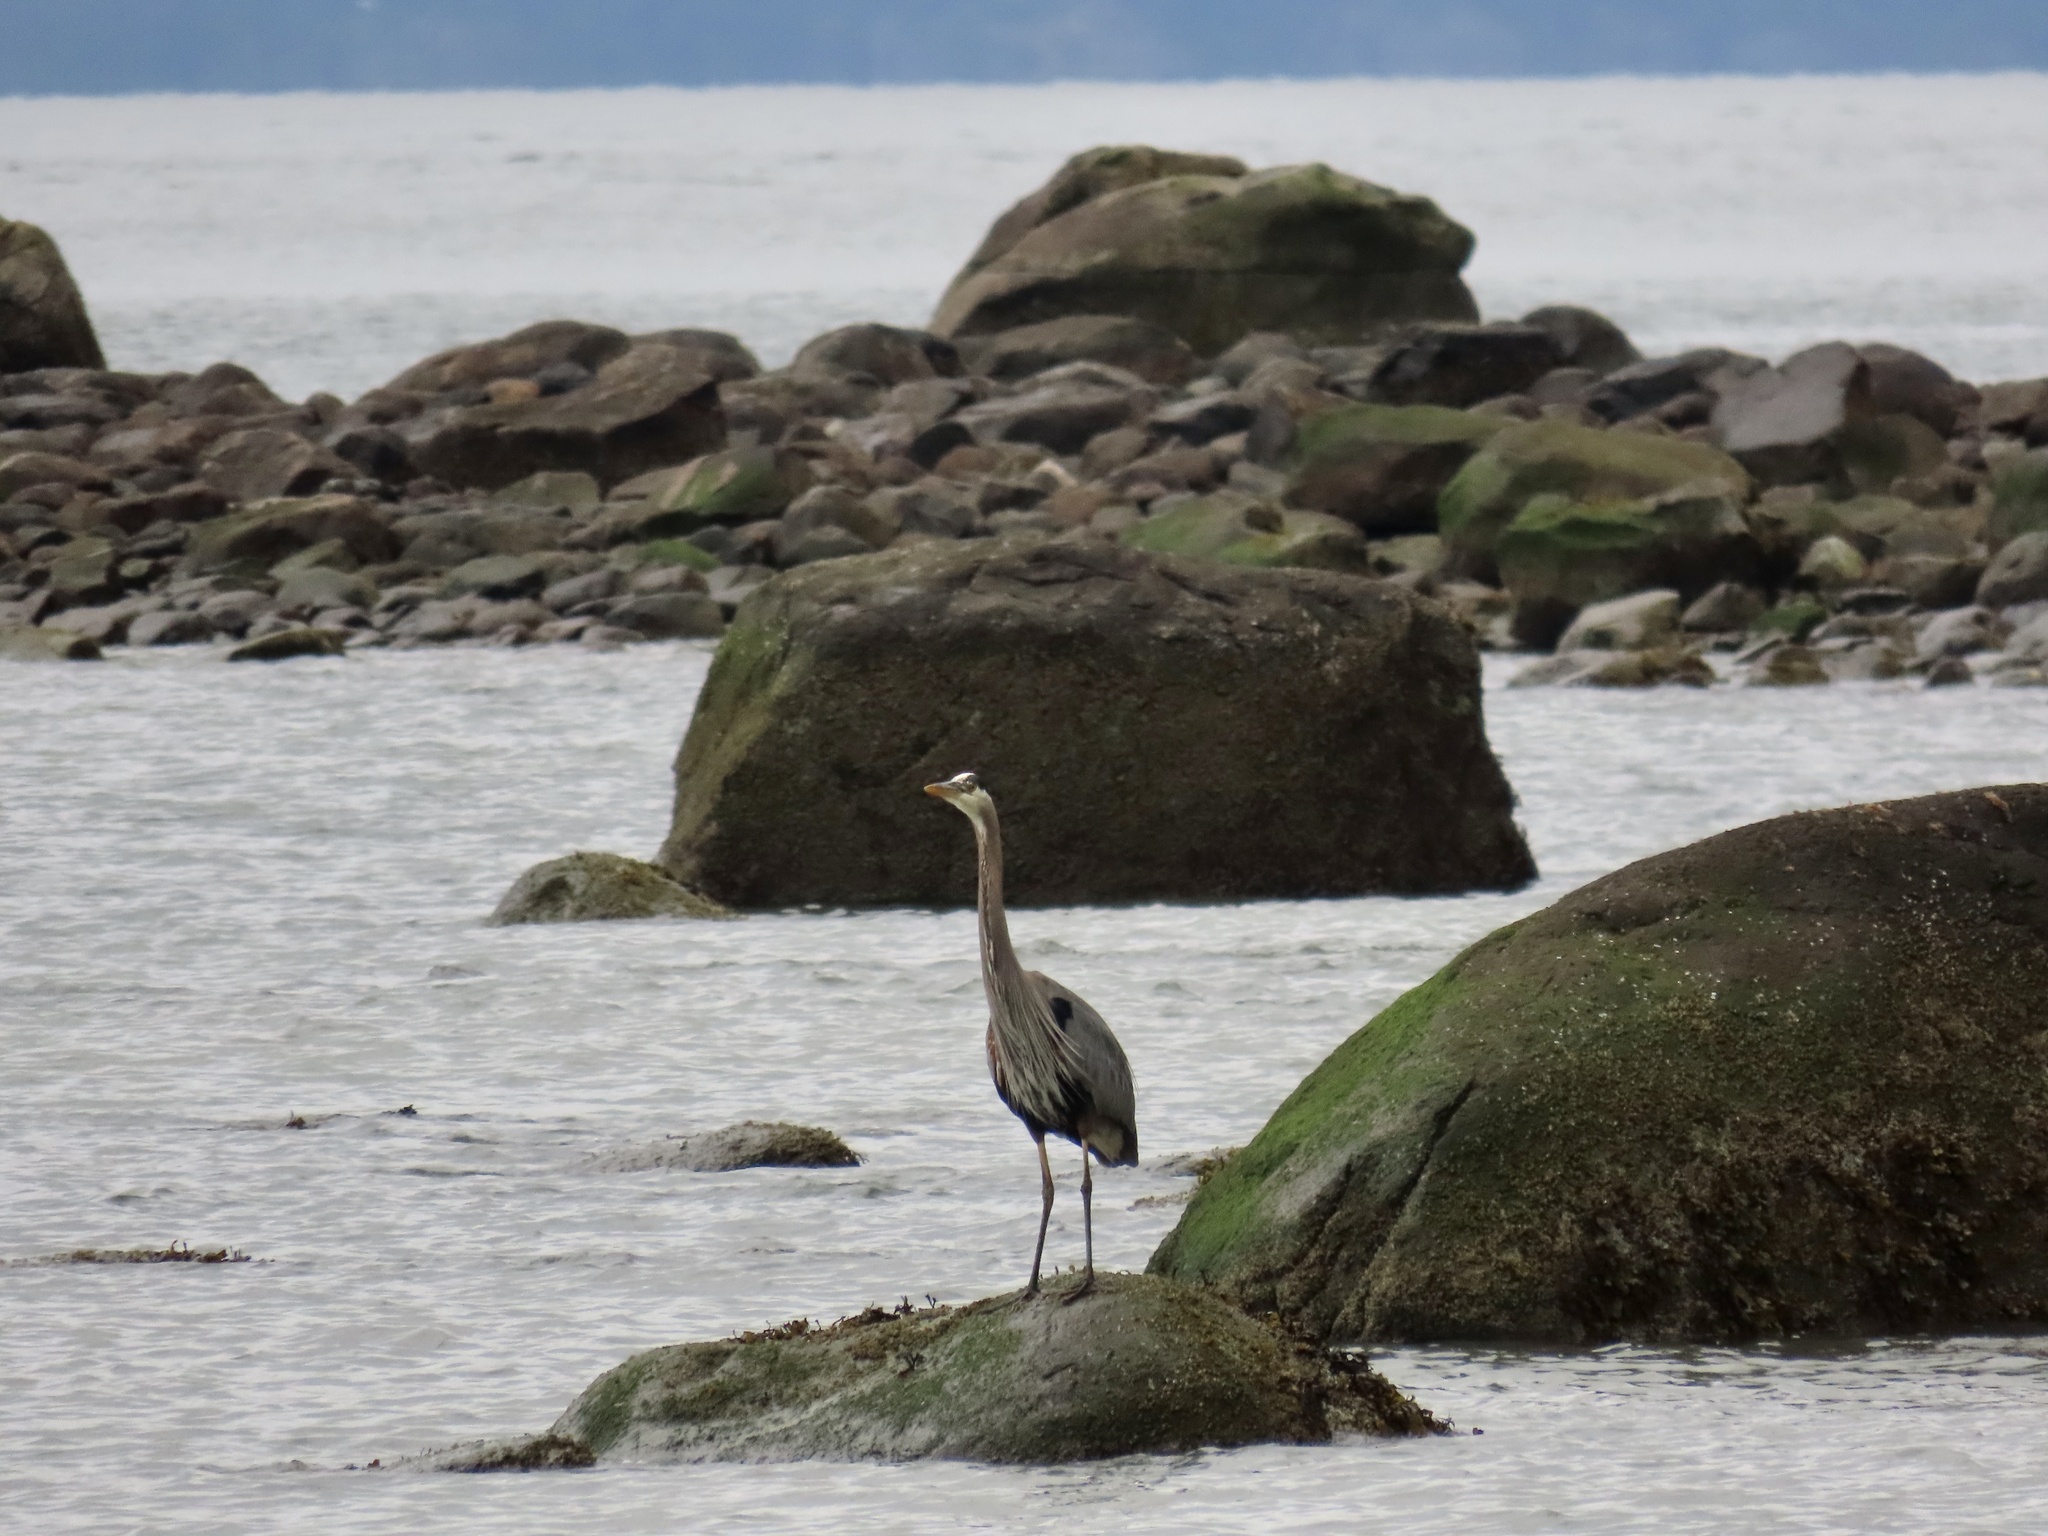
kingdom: Animalia
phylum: Chordata
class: Aves
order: Pelecaniformes
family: Ardeidae
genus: Ardea
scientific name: Ardea herodias
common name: Great blue heron
